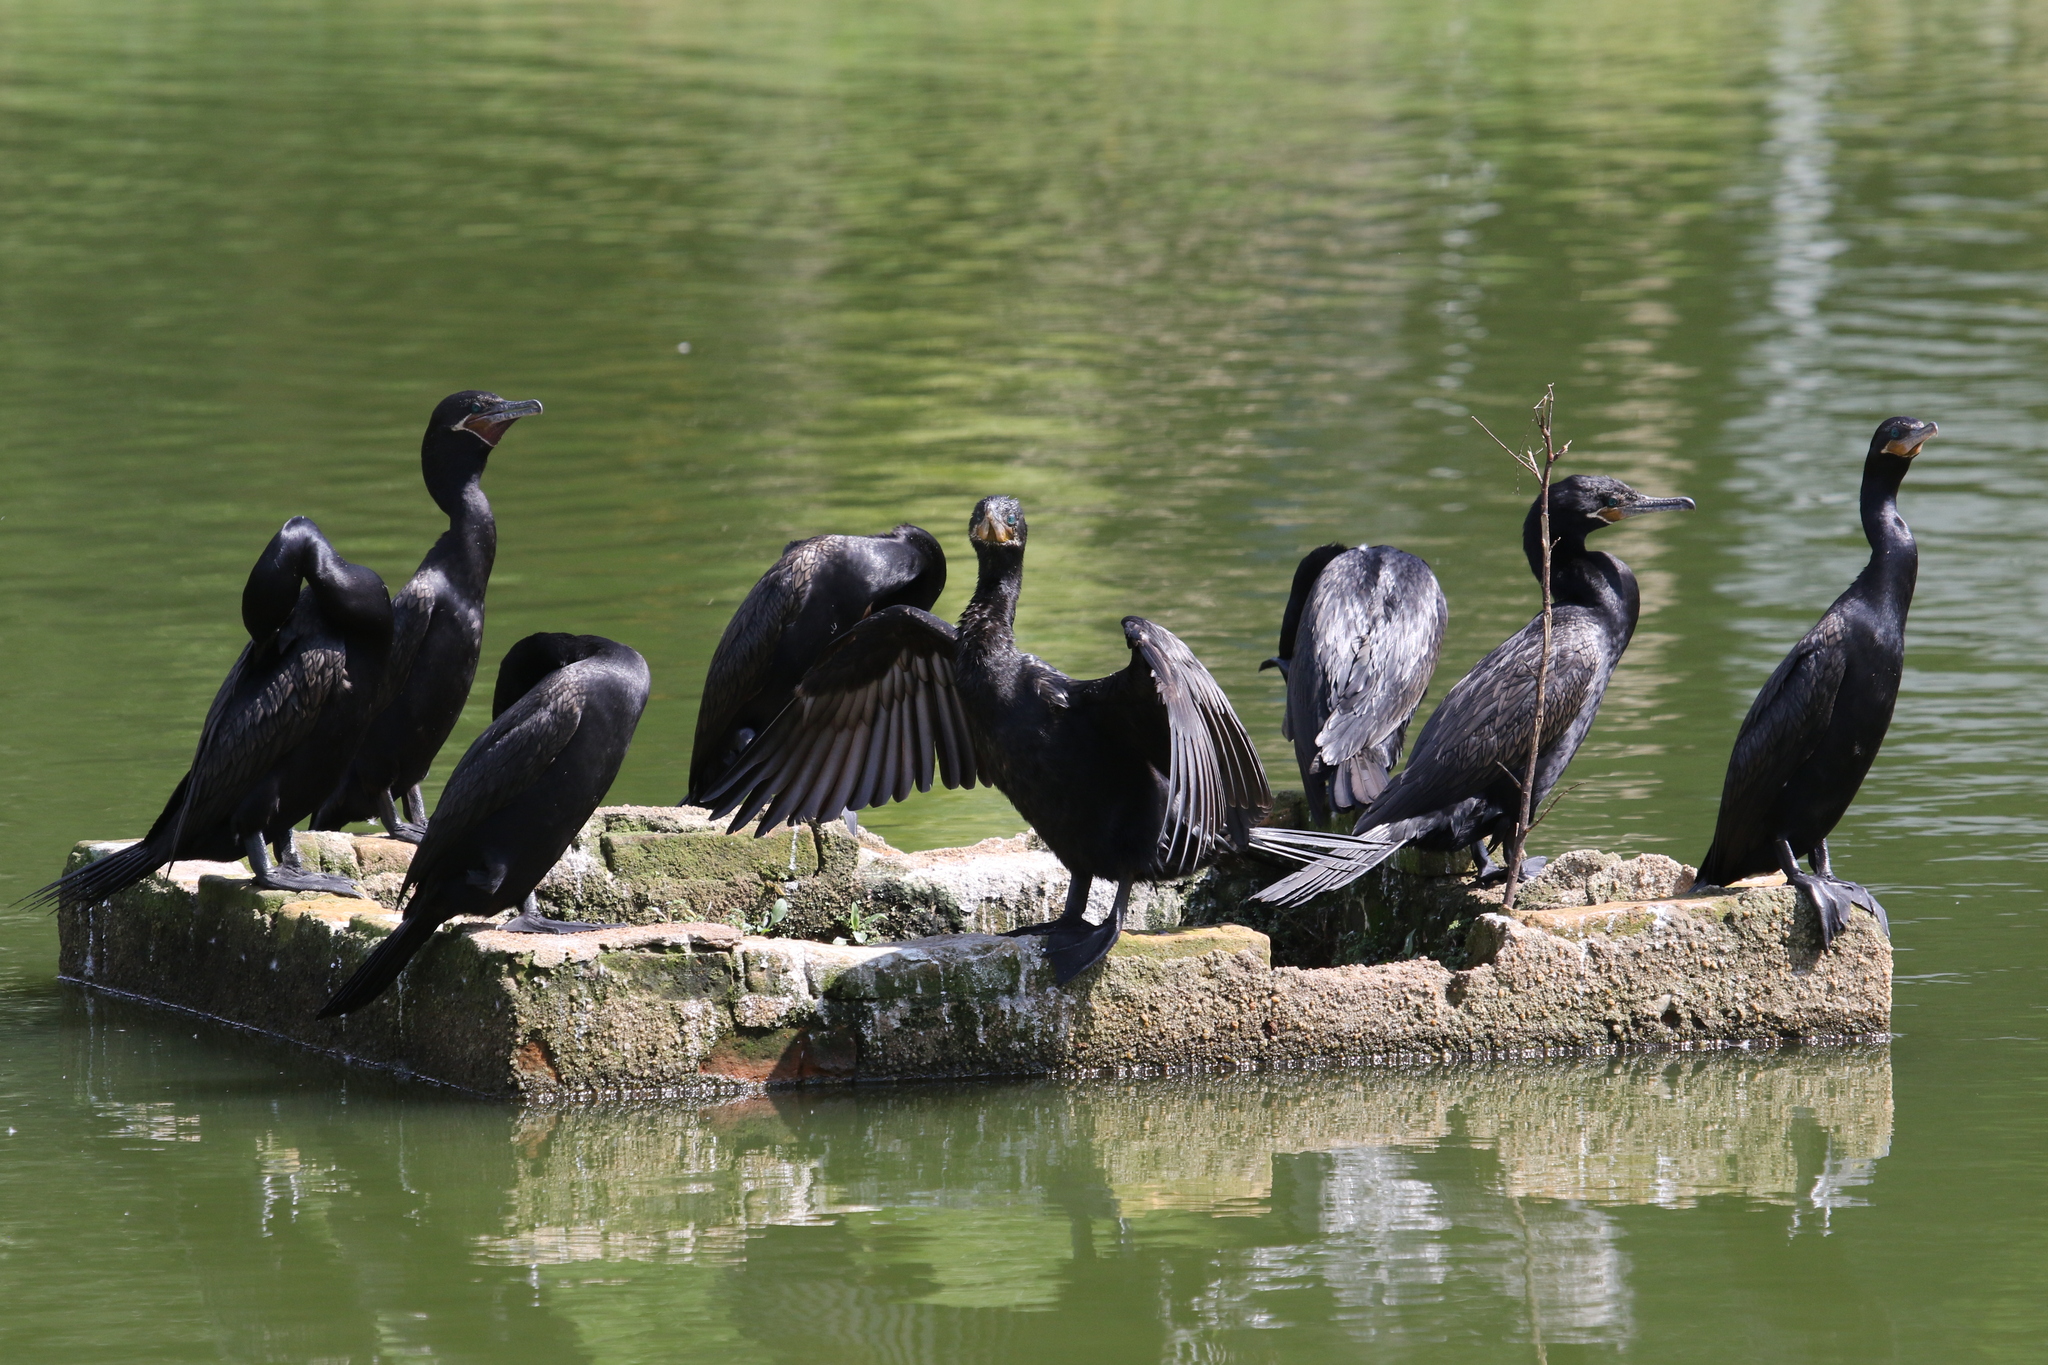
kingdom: Animalia
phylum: Chordata
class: Aves
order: Suliformes
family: Phalacrocoracidae
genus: Phalacrocorax
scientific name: Phalacrocorax brasilianus
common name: Neotropic cormorant
